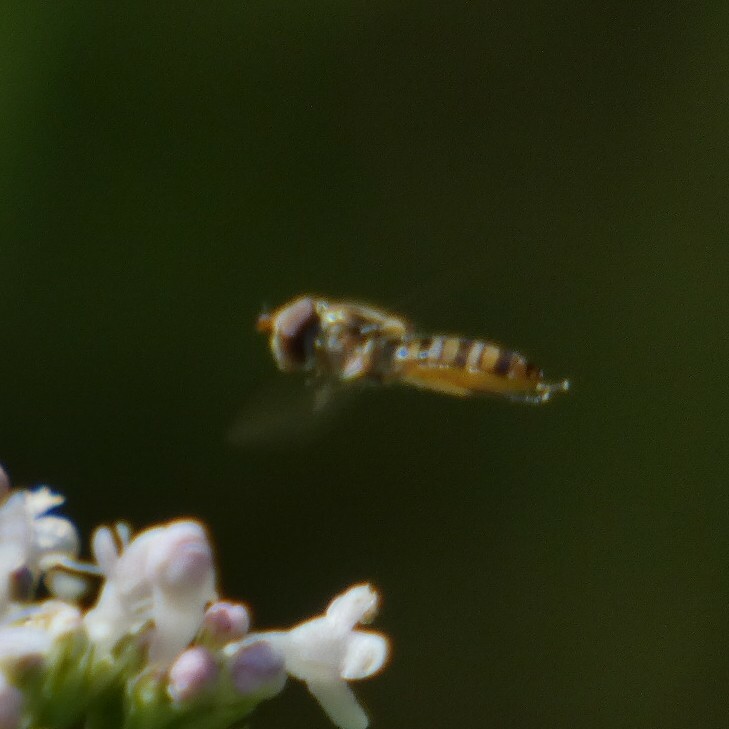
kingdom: Animalia
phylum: Arthropoda
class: Insecta
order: Diptera
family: Syrphidae
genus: Episyrphus
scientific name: Episyrphus balteatus
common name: Marmalade hoverfly
